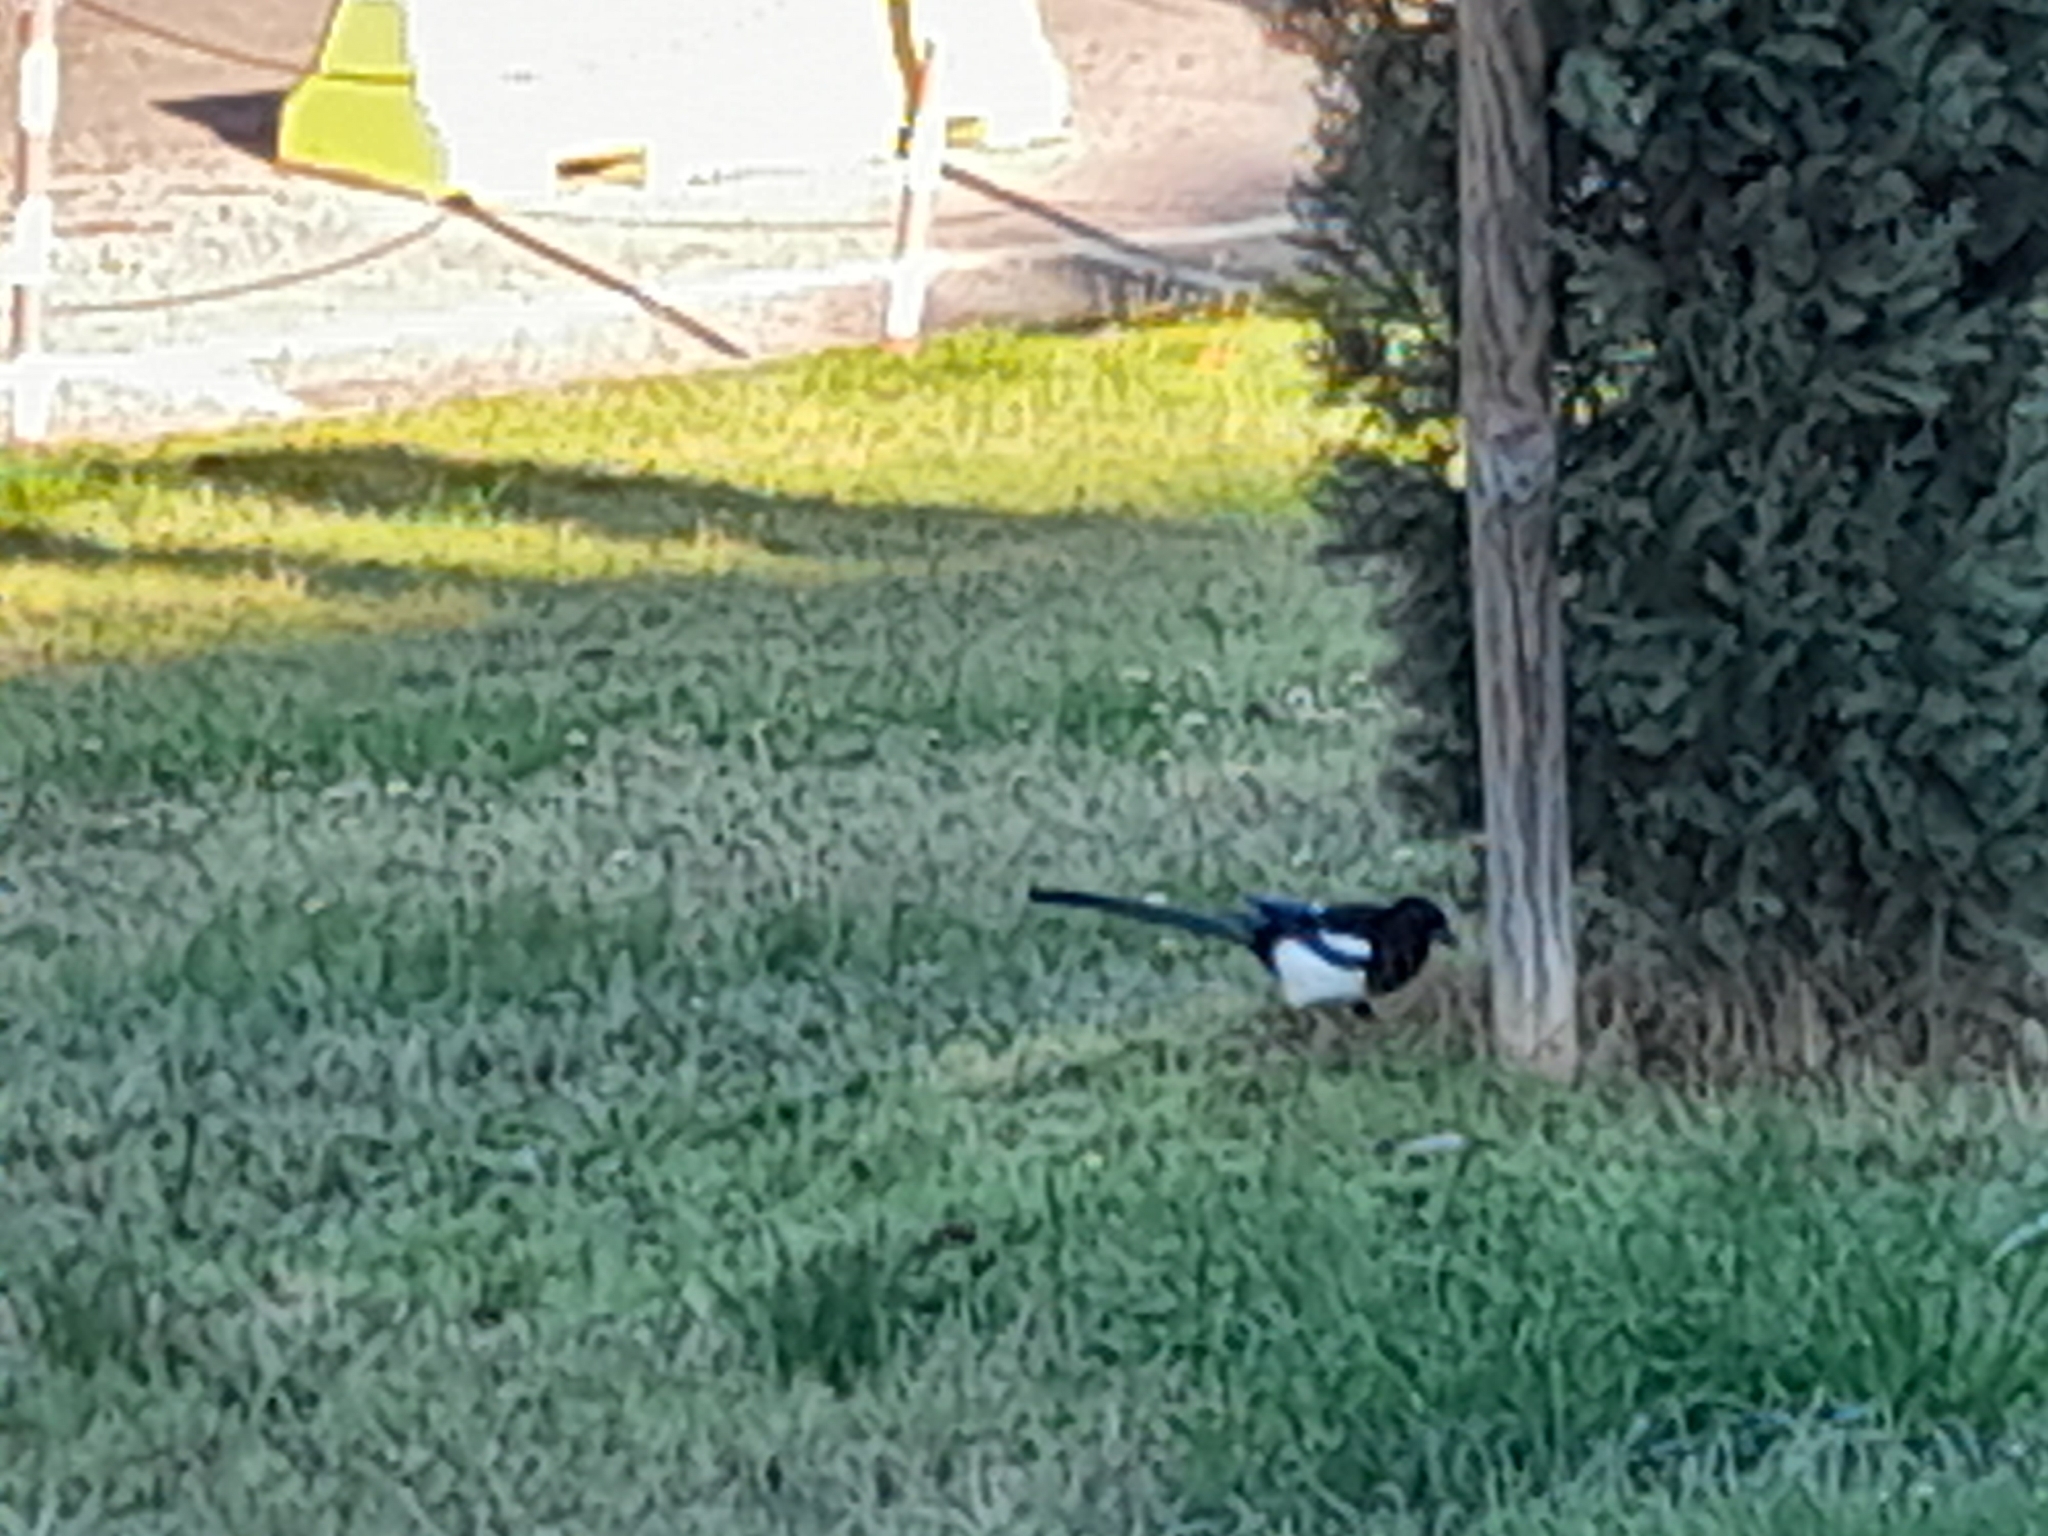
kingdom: Animalia
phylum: Chordata
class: Aves
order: Passeriformes
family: Corvidae
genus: Pica
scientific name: Pica pica
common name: Eurasian magpie
